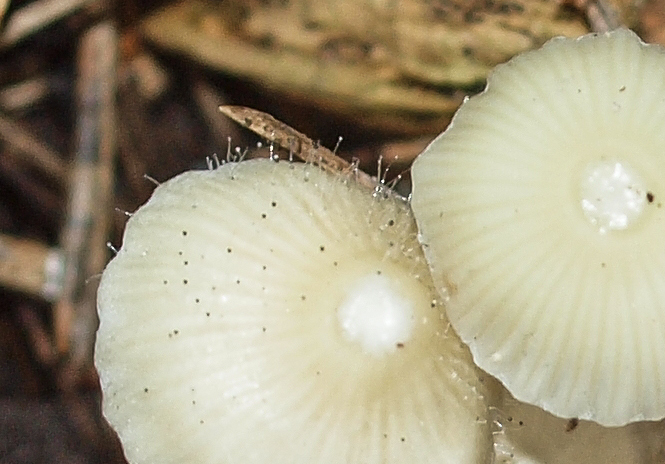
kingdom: Fungi
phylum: Mucoromycota
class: Mucoromycetes
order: Mucorales
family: Phycomycetaceae
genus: Spinellus
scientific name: Spinellus fusiger
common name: Bonnet mould
